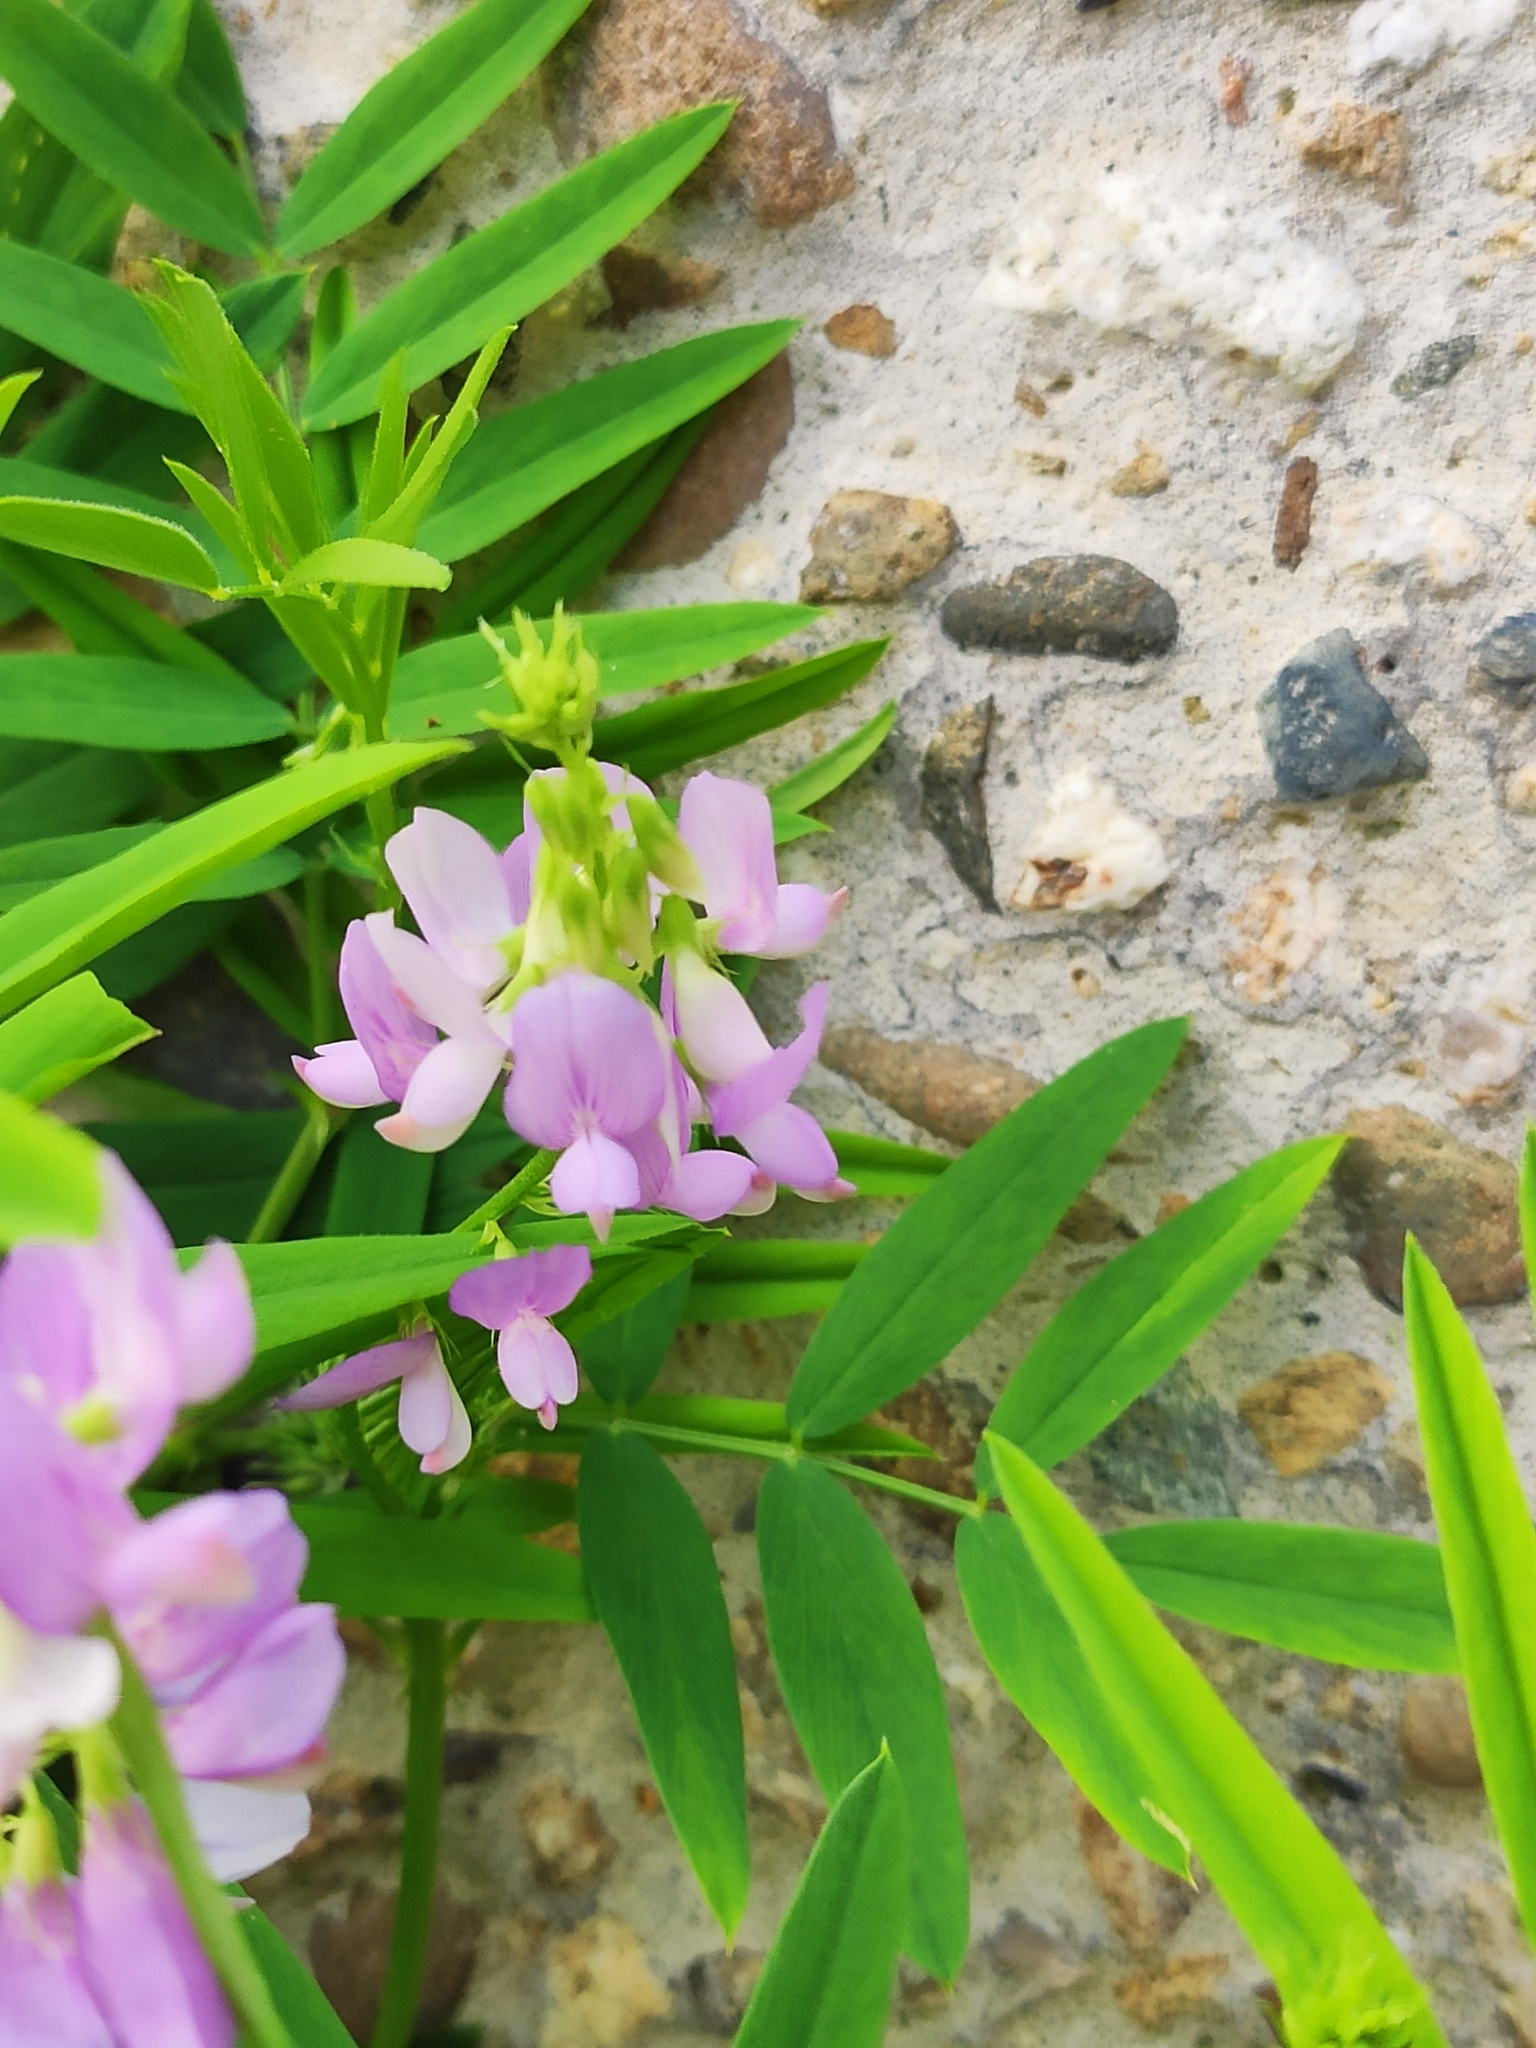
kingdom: Plantae
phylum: Tracheophyta
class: Magnoliopsida
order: Fabales
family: Fabaceae
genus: Galega
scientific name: Galega officinalis
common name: Goat's-rue
